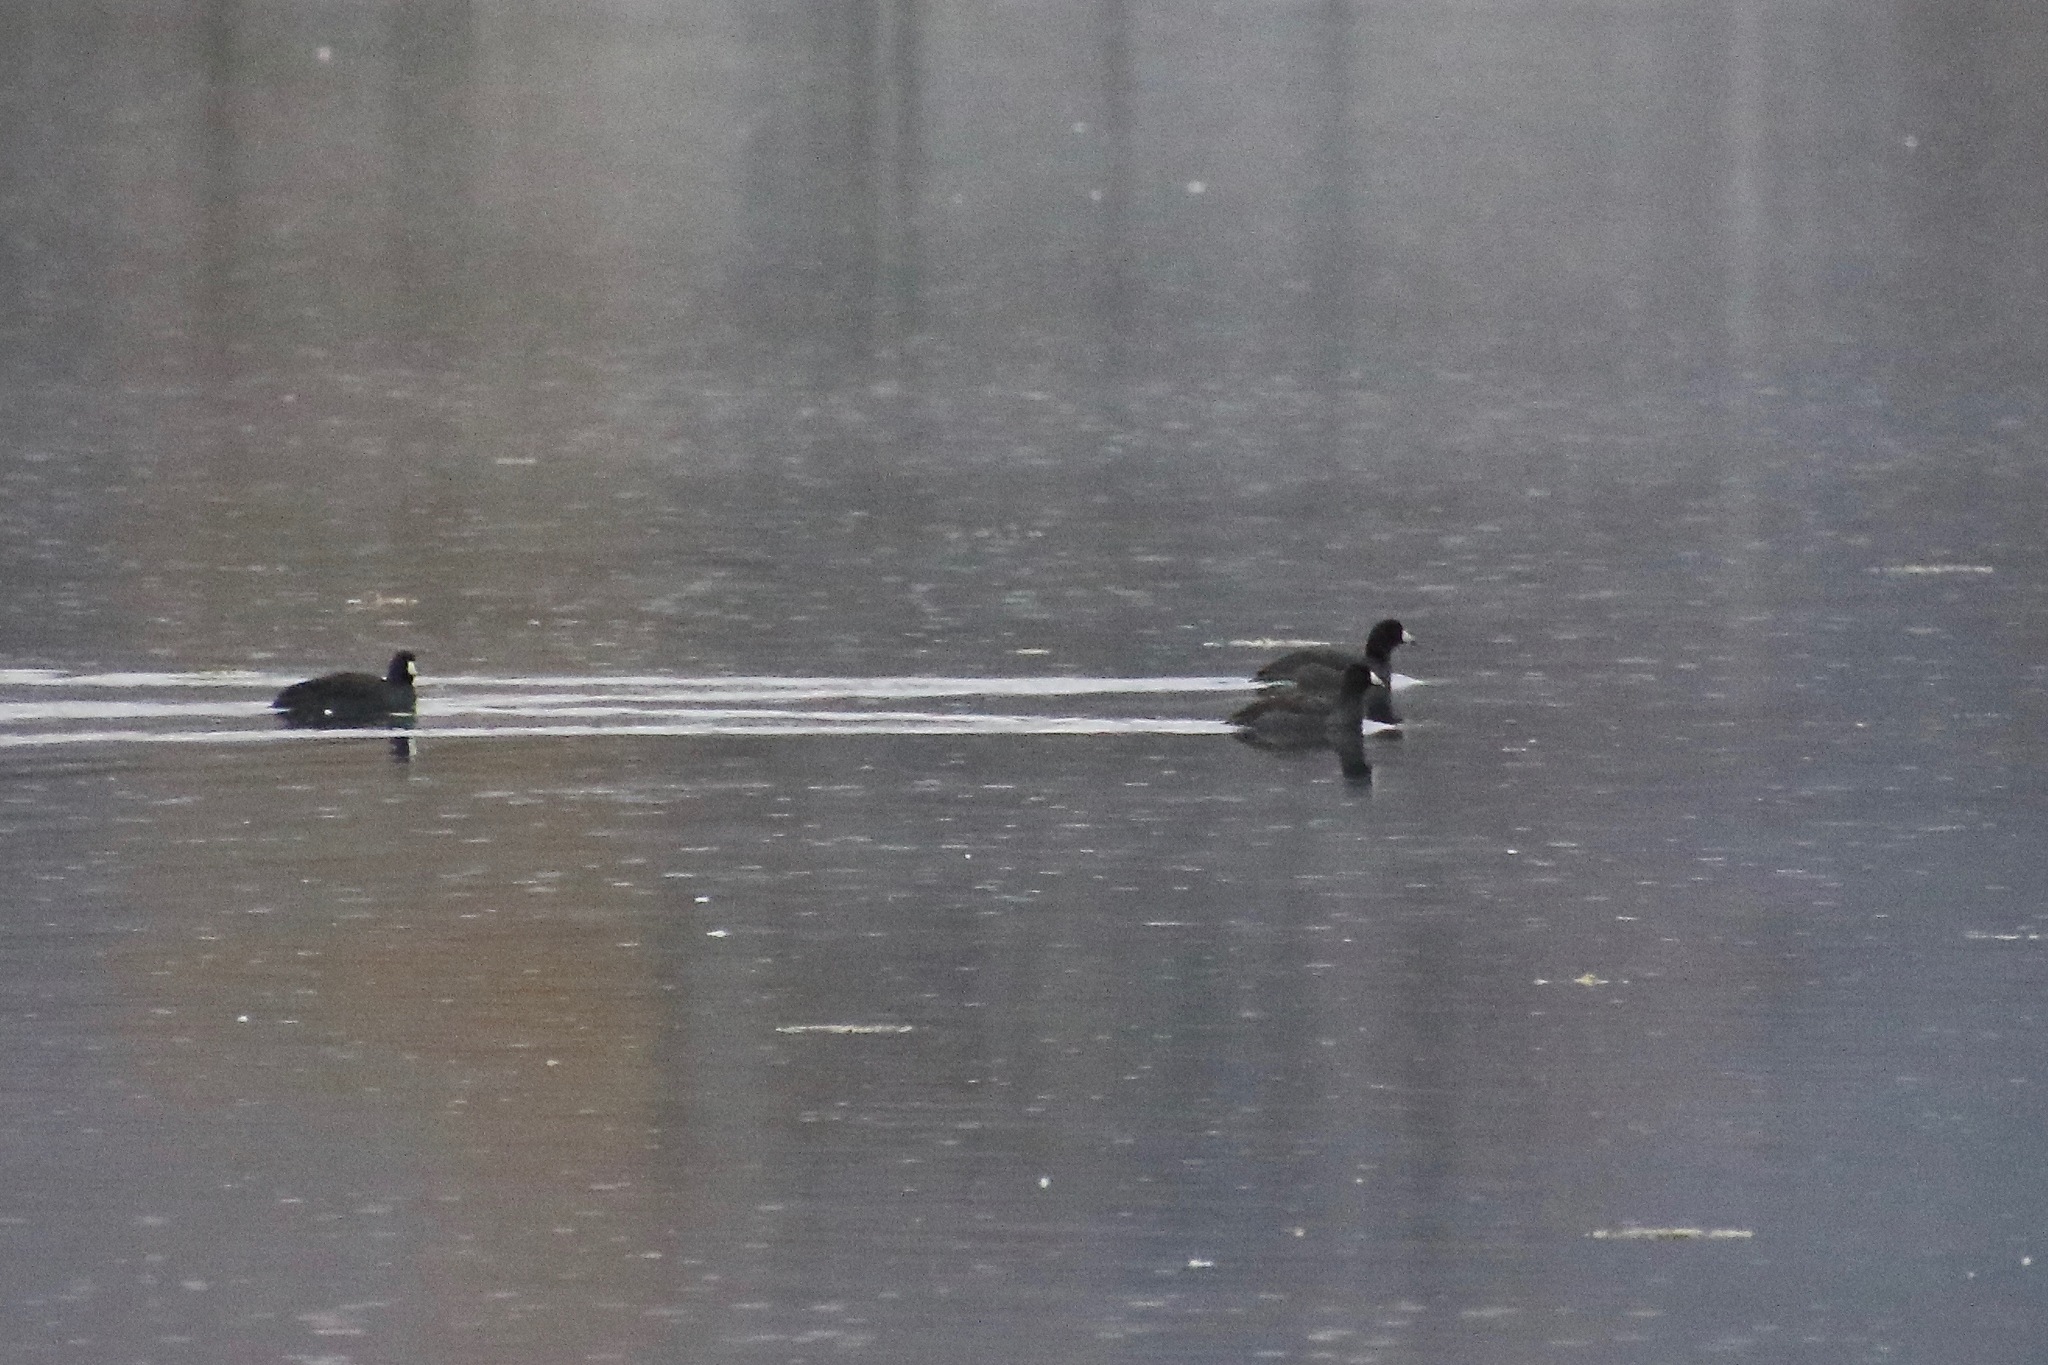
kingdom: Animalia
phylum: Chordata
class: Aves
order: Gruiformes
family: Rallidae
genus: Fulica
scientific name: Fulica americana
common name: American coot
